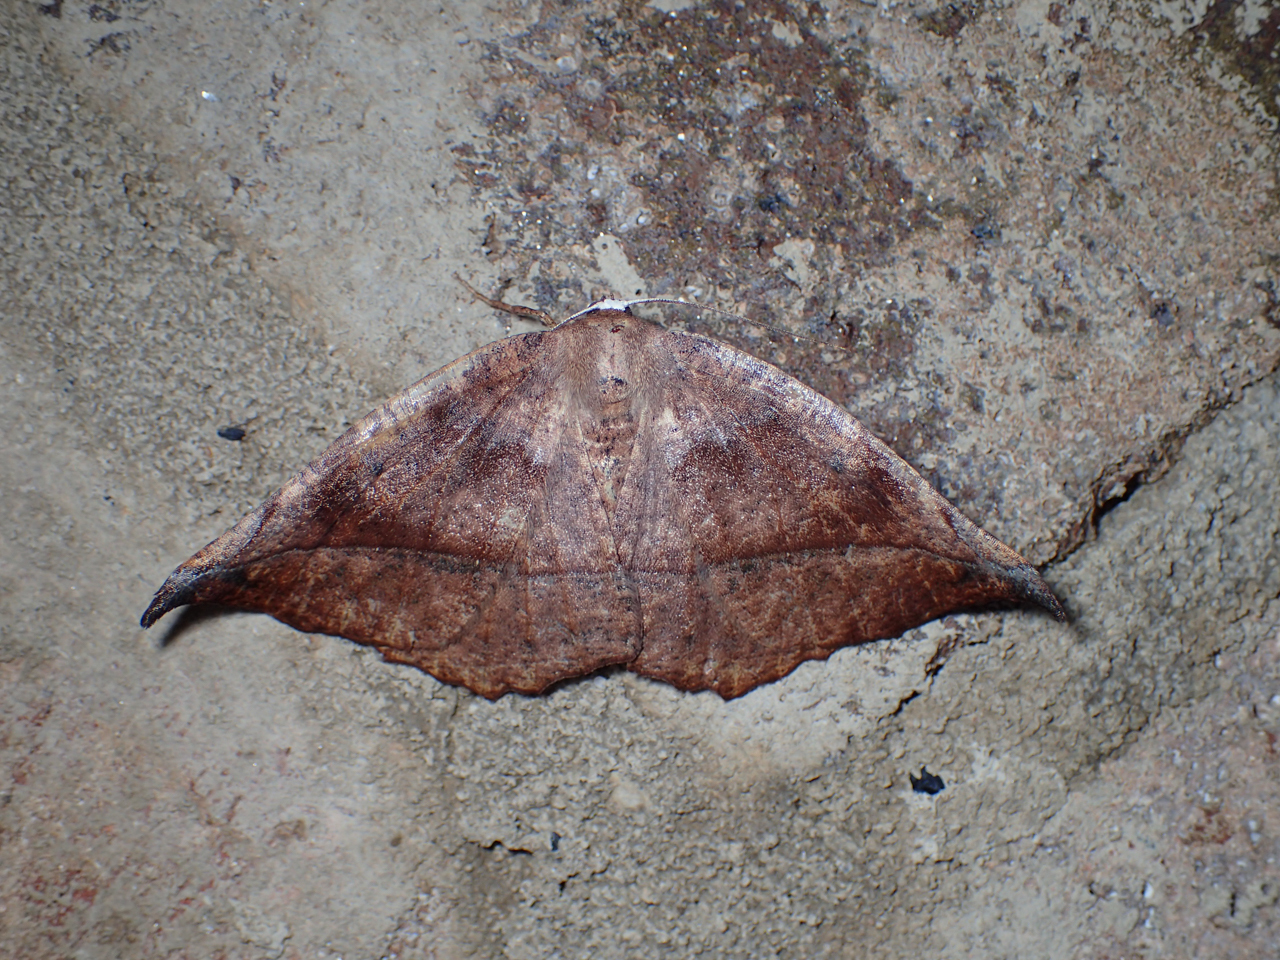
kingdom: Animalia
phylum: Arthropoda
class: Insecta
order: Lepidoptera
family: Geometridae
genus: Eutrapela
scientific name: Eutrapela clemataria
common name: Curved-toothed geometer
